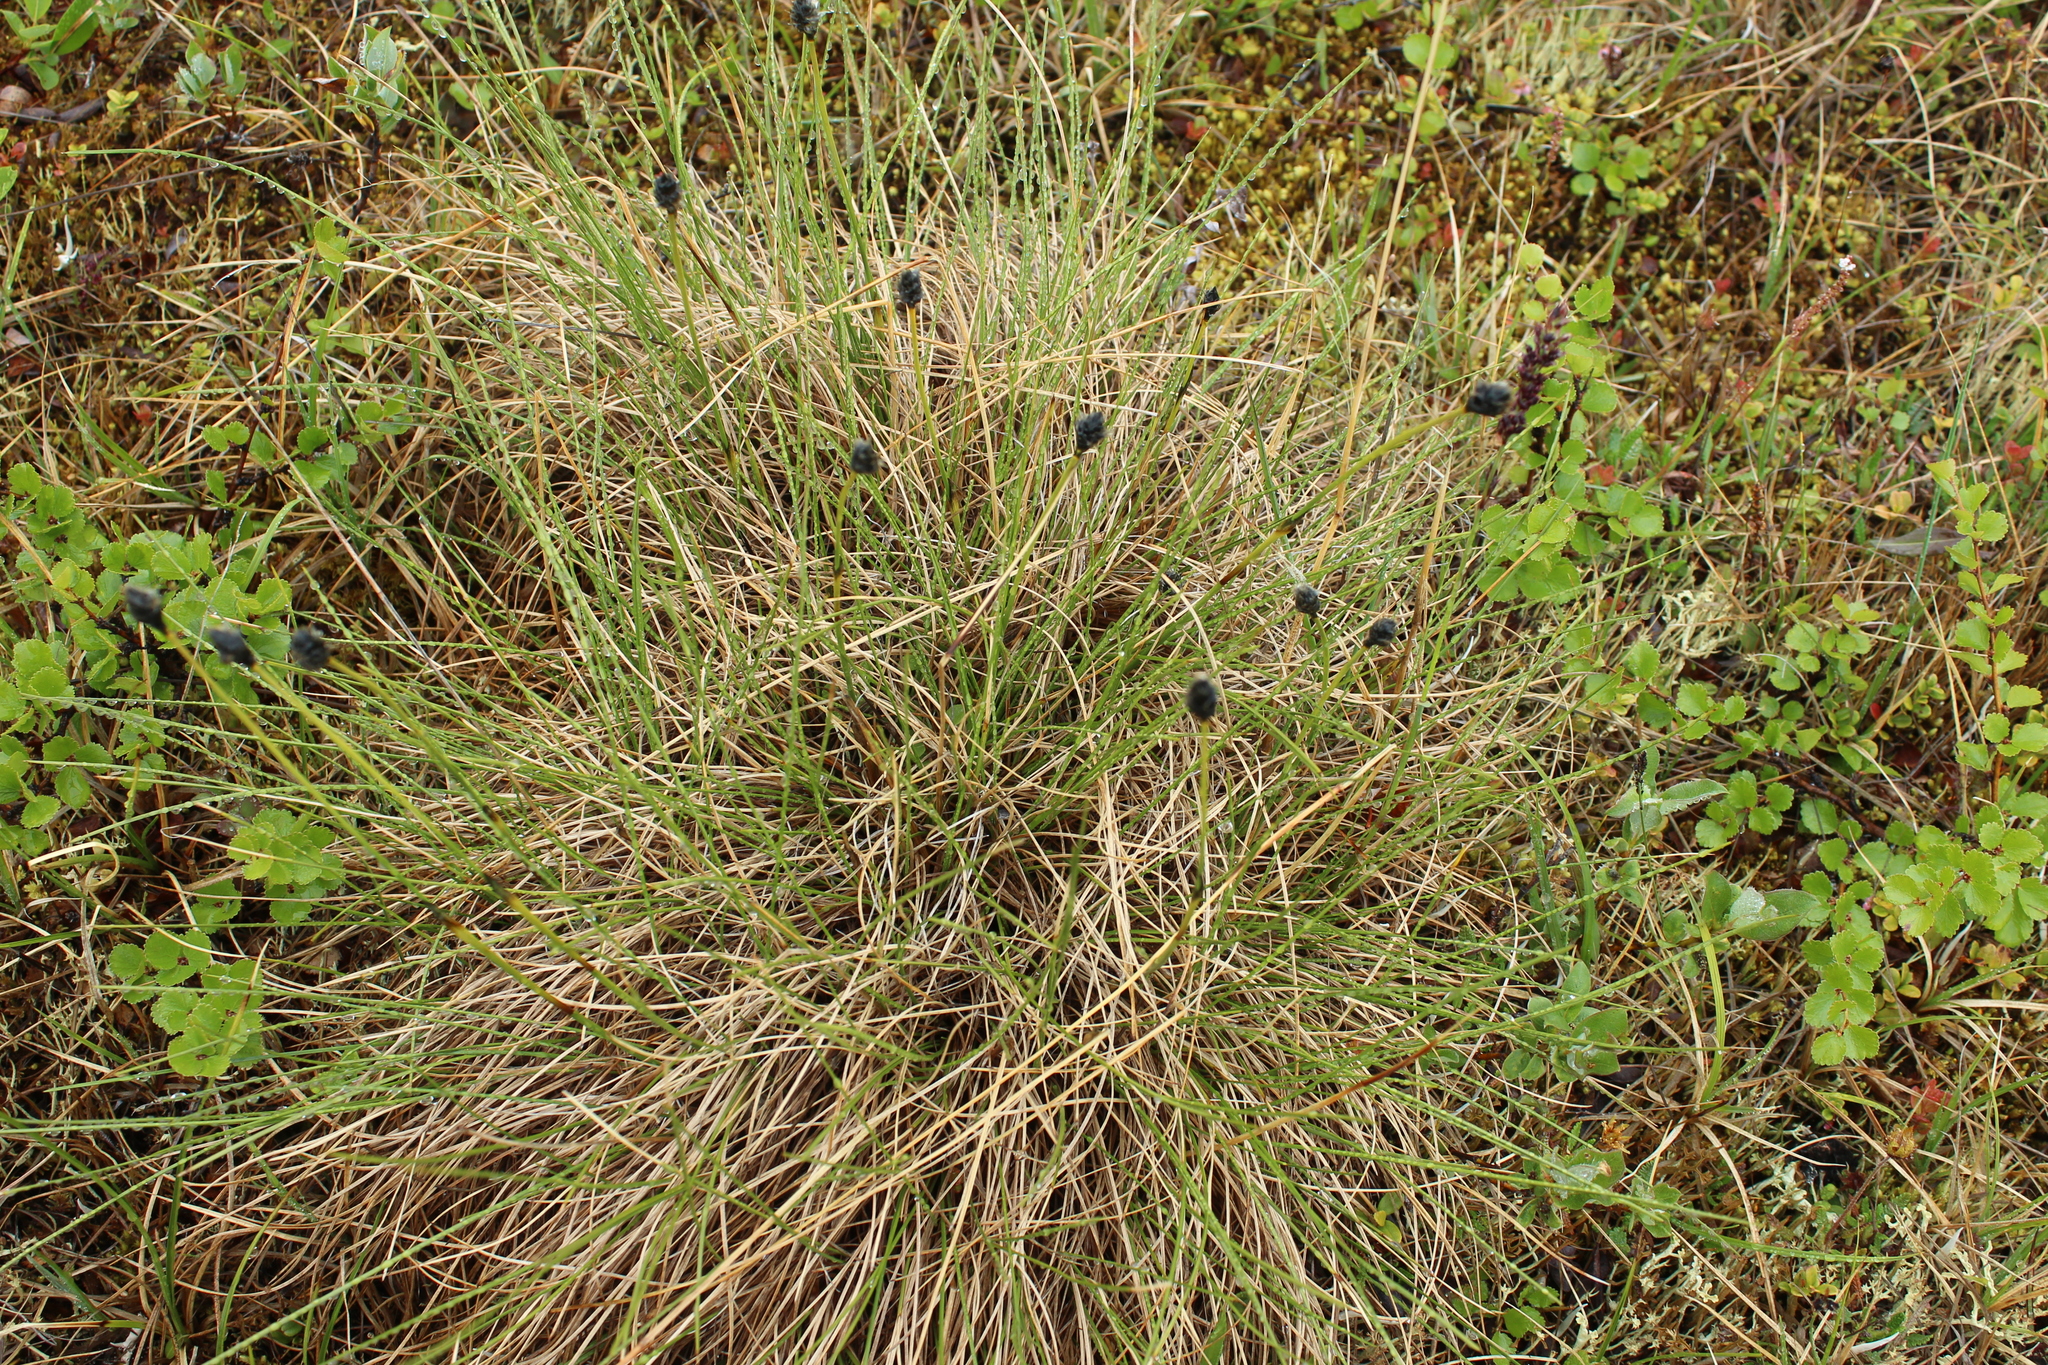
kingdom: Plantae
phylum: Tracheophyta
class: Liliopsida
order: Poales
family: Cyperaceae
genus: Eriophorum
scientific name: Eriophorum vaginatum
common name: Hare's-tail cottongrass
